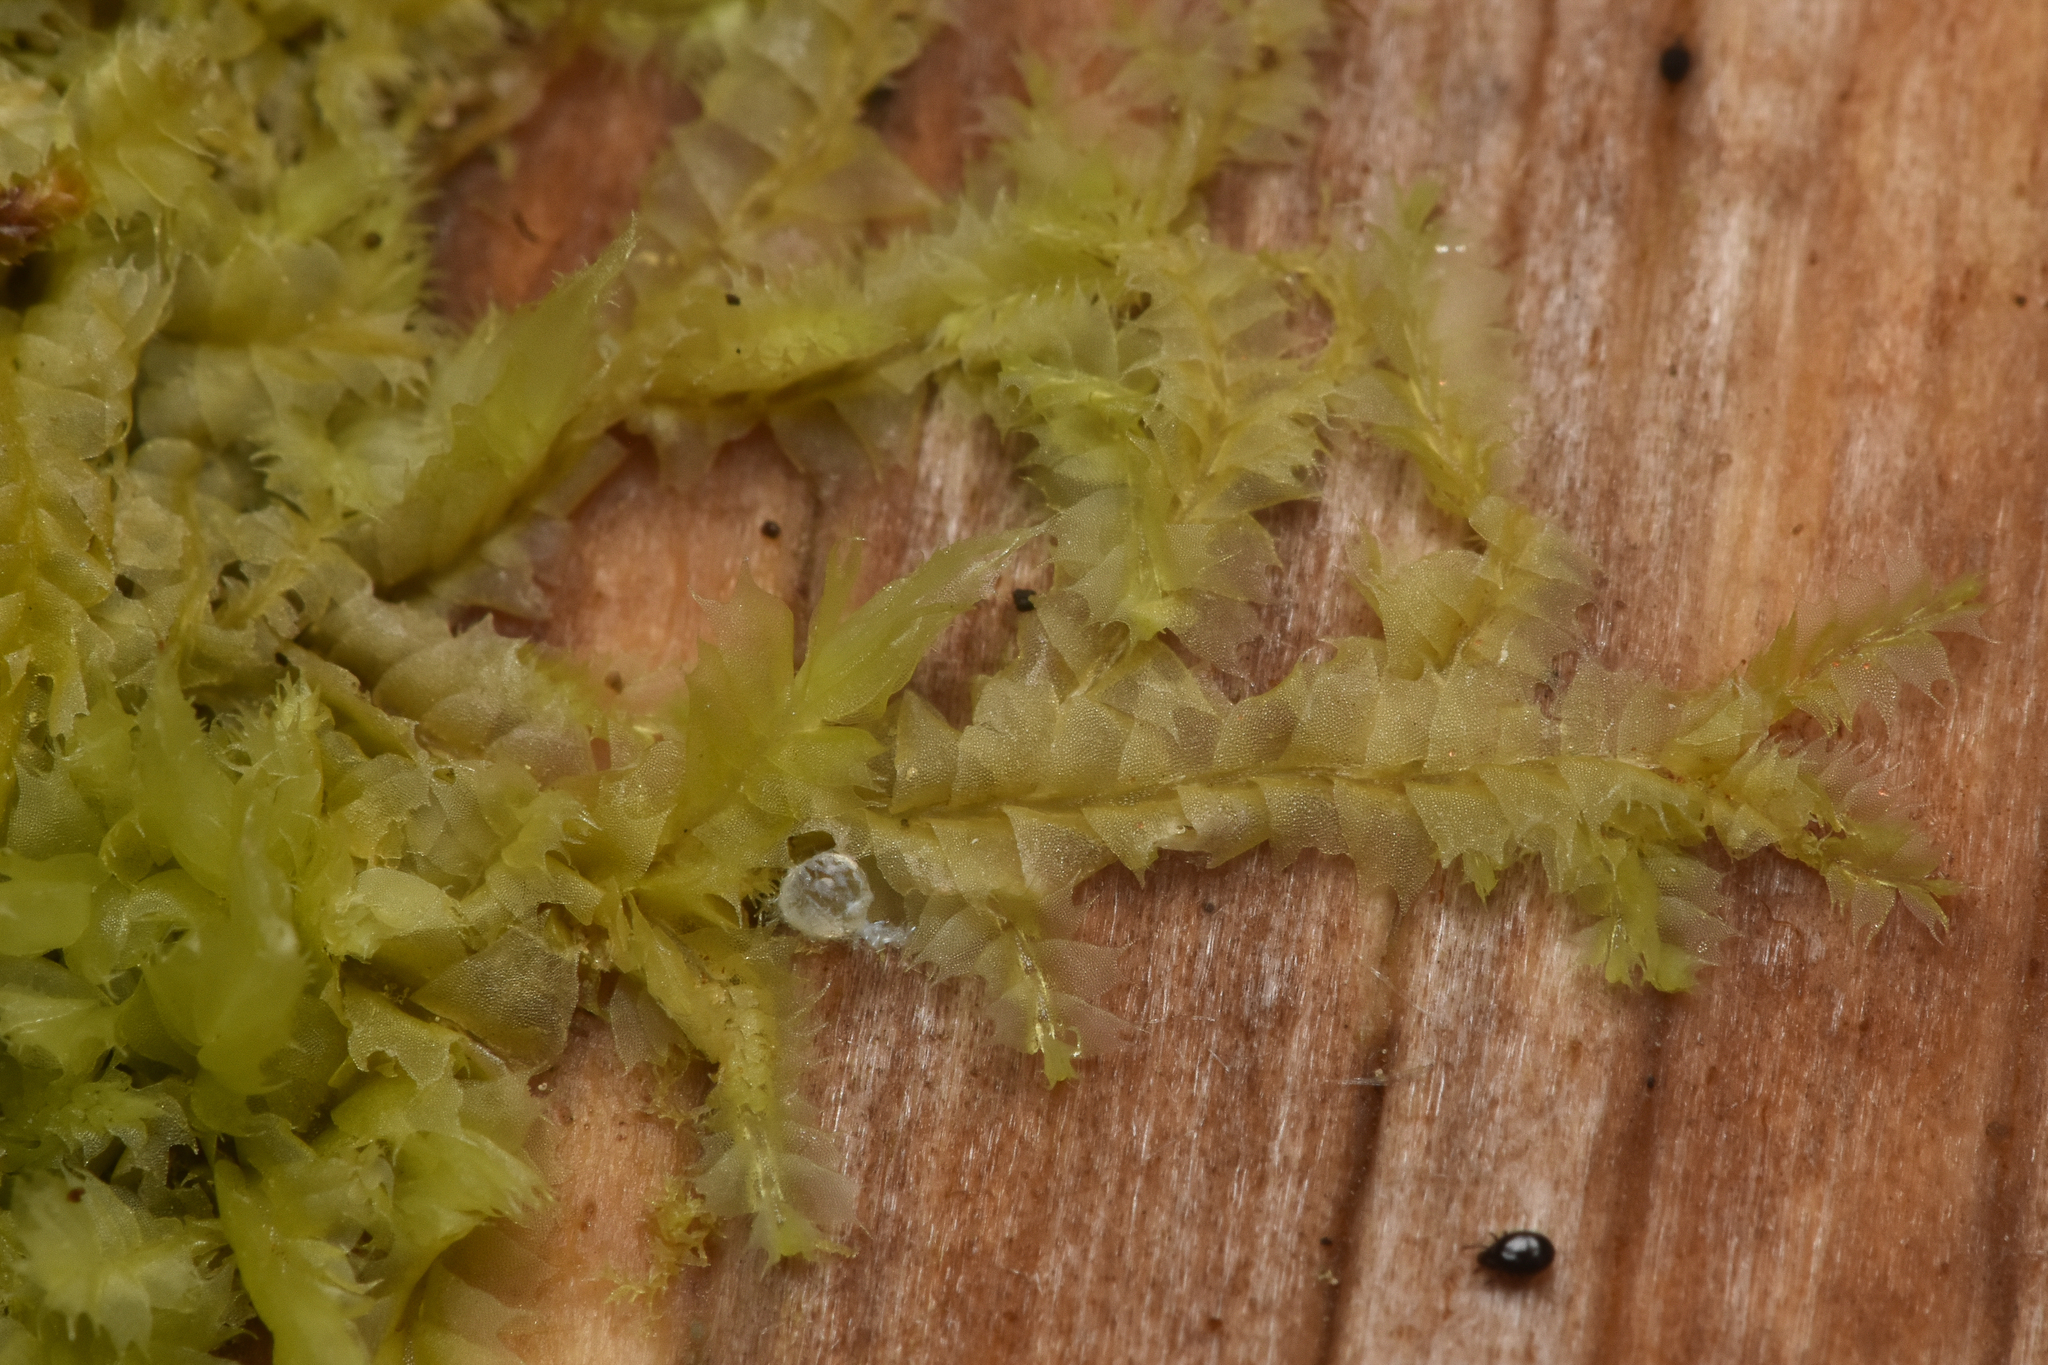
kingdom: Plantae
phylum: Marchantiophyta
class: Jungermanniopsida
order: Jungermanniales
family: Lophocoleaceae
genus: Lophocolea
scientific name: Lophocolea bidentata
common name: Bifid crestwort
